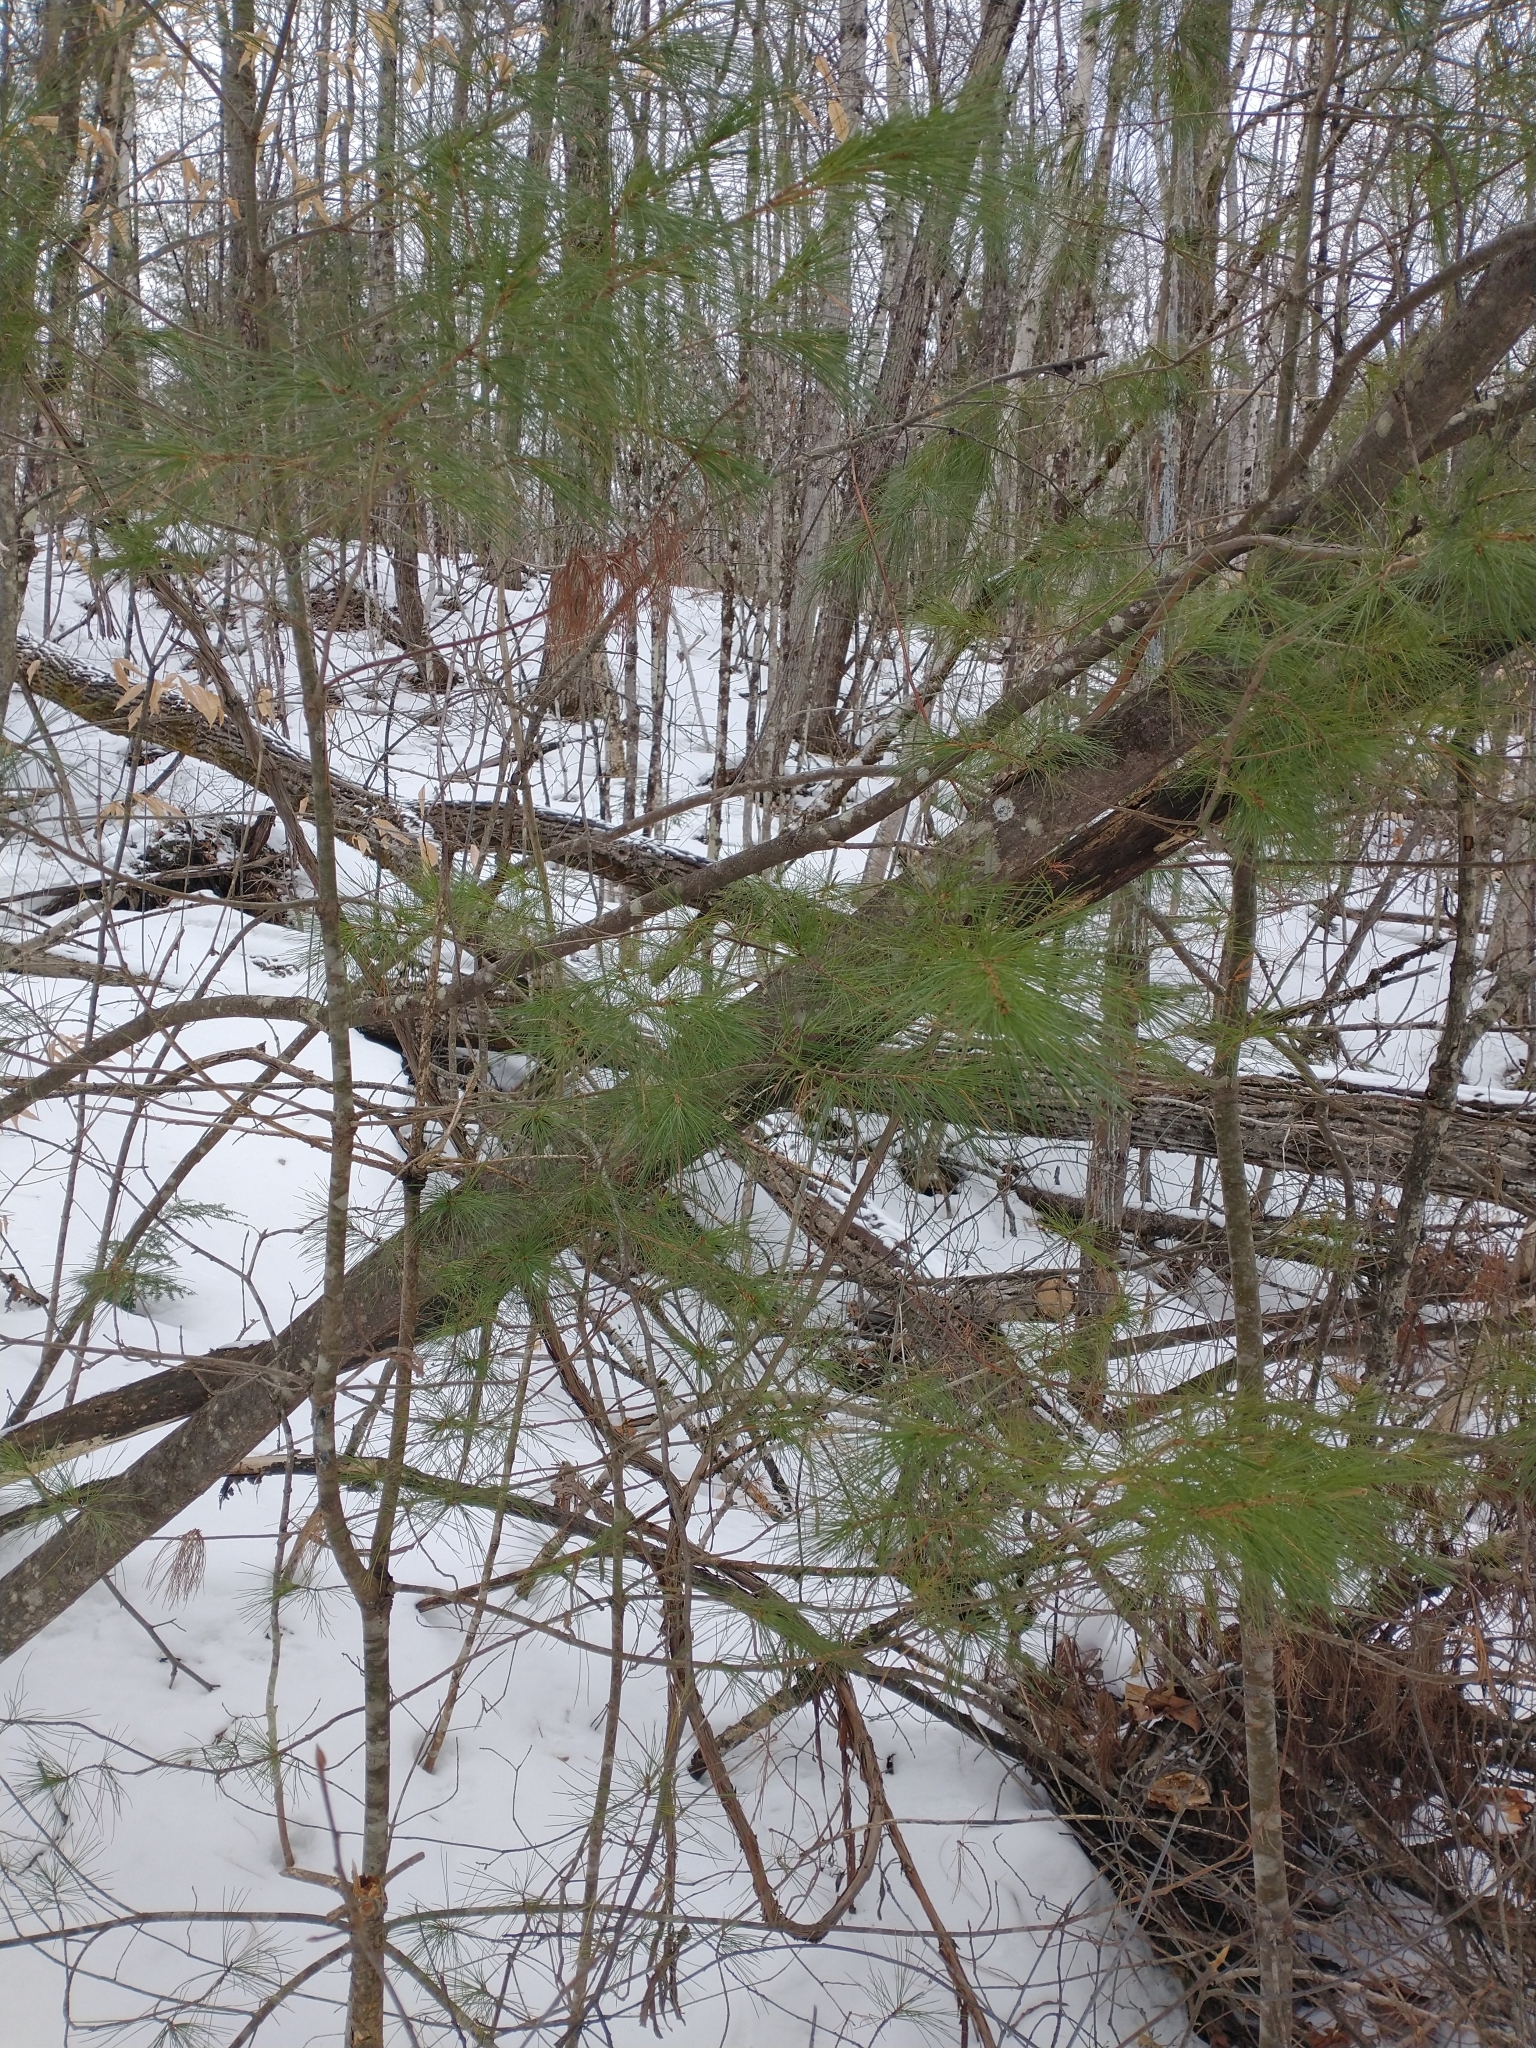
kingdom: Animalia
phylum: Arthropoda
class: Insecta
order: Lepidoptera
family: Tortricidae
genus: Argyrotaenia
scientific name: Argyrotaenia pinatubana
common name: Pine tube moth
